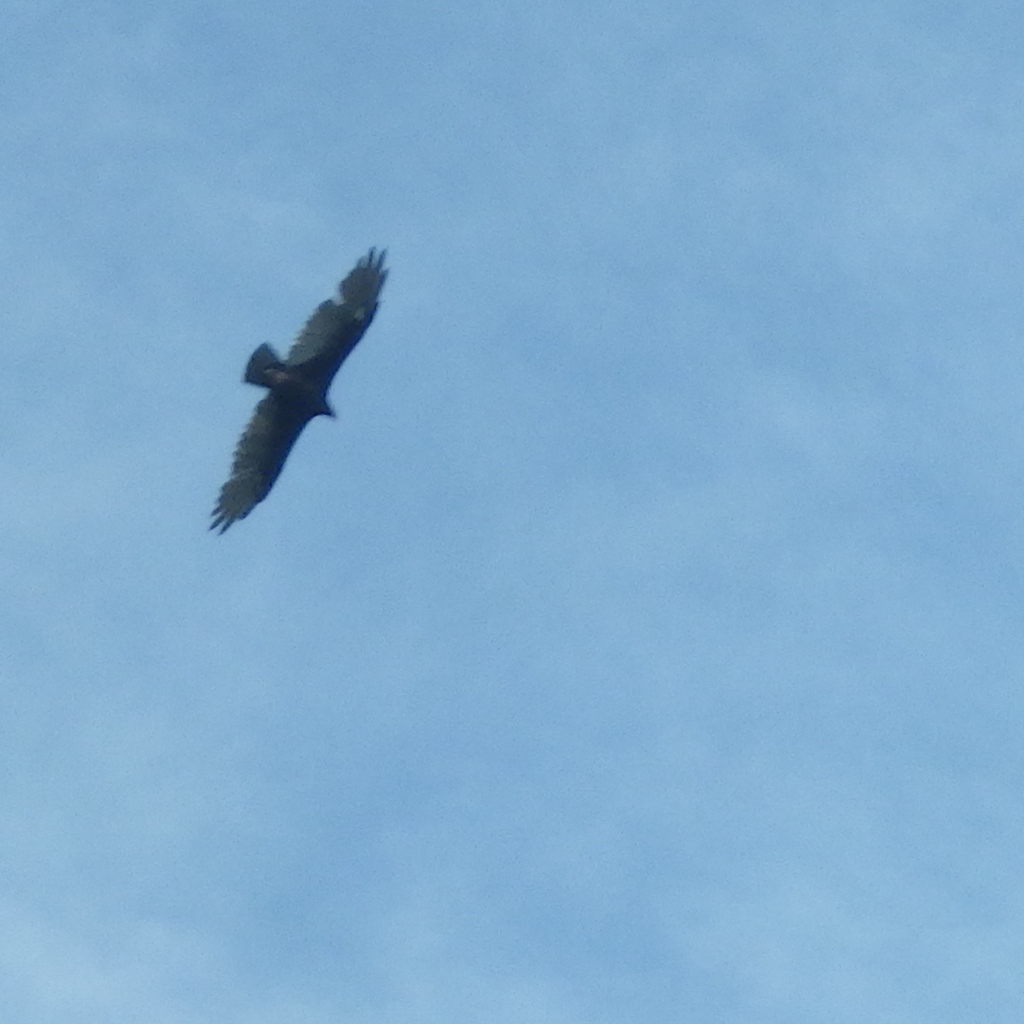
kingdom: Animalia
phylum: Chordata
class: Aves
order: Accipitriformes
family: Cathartidae
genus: Cathartes
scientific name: Cathartes aura
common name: Turkey vulture
